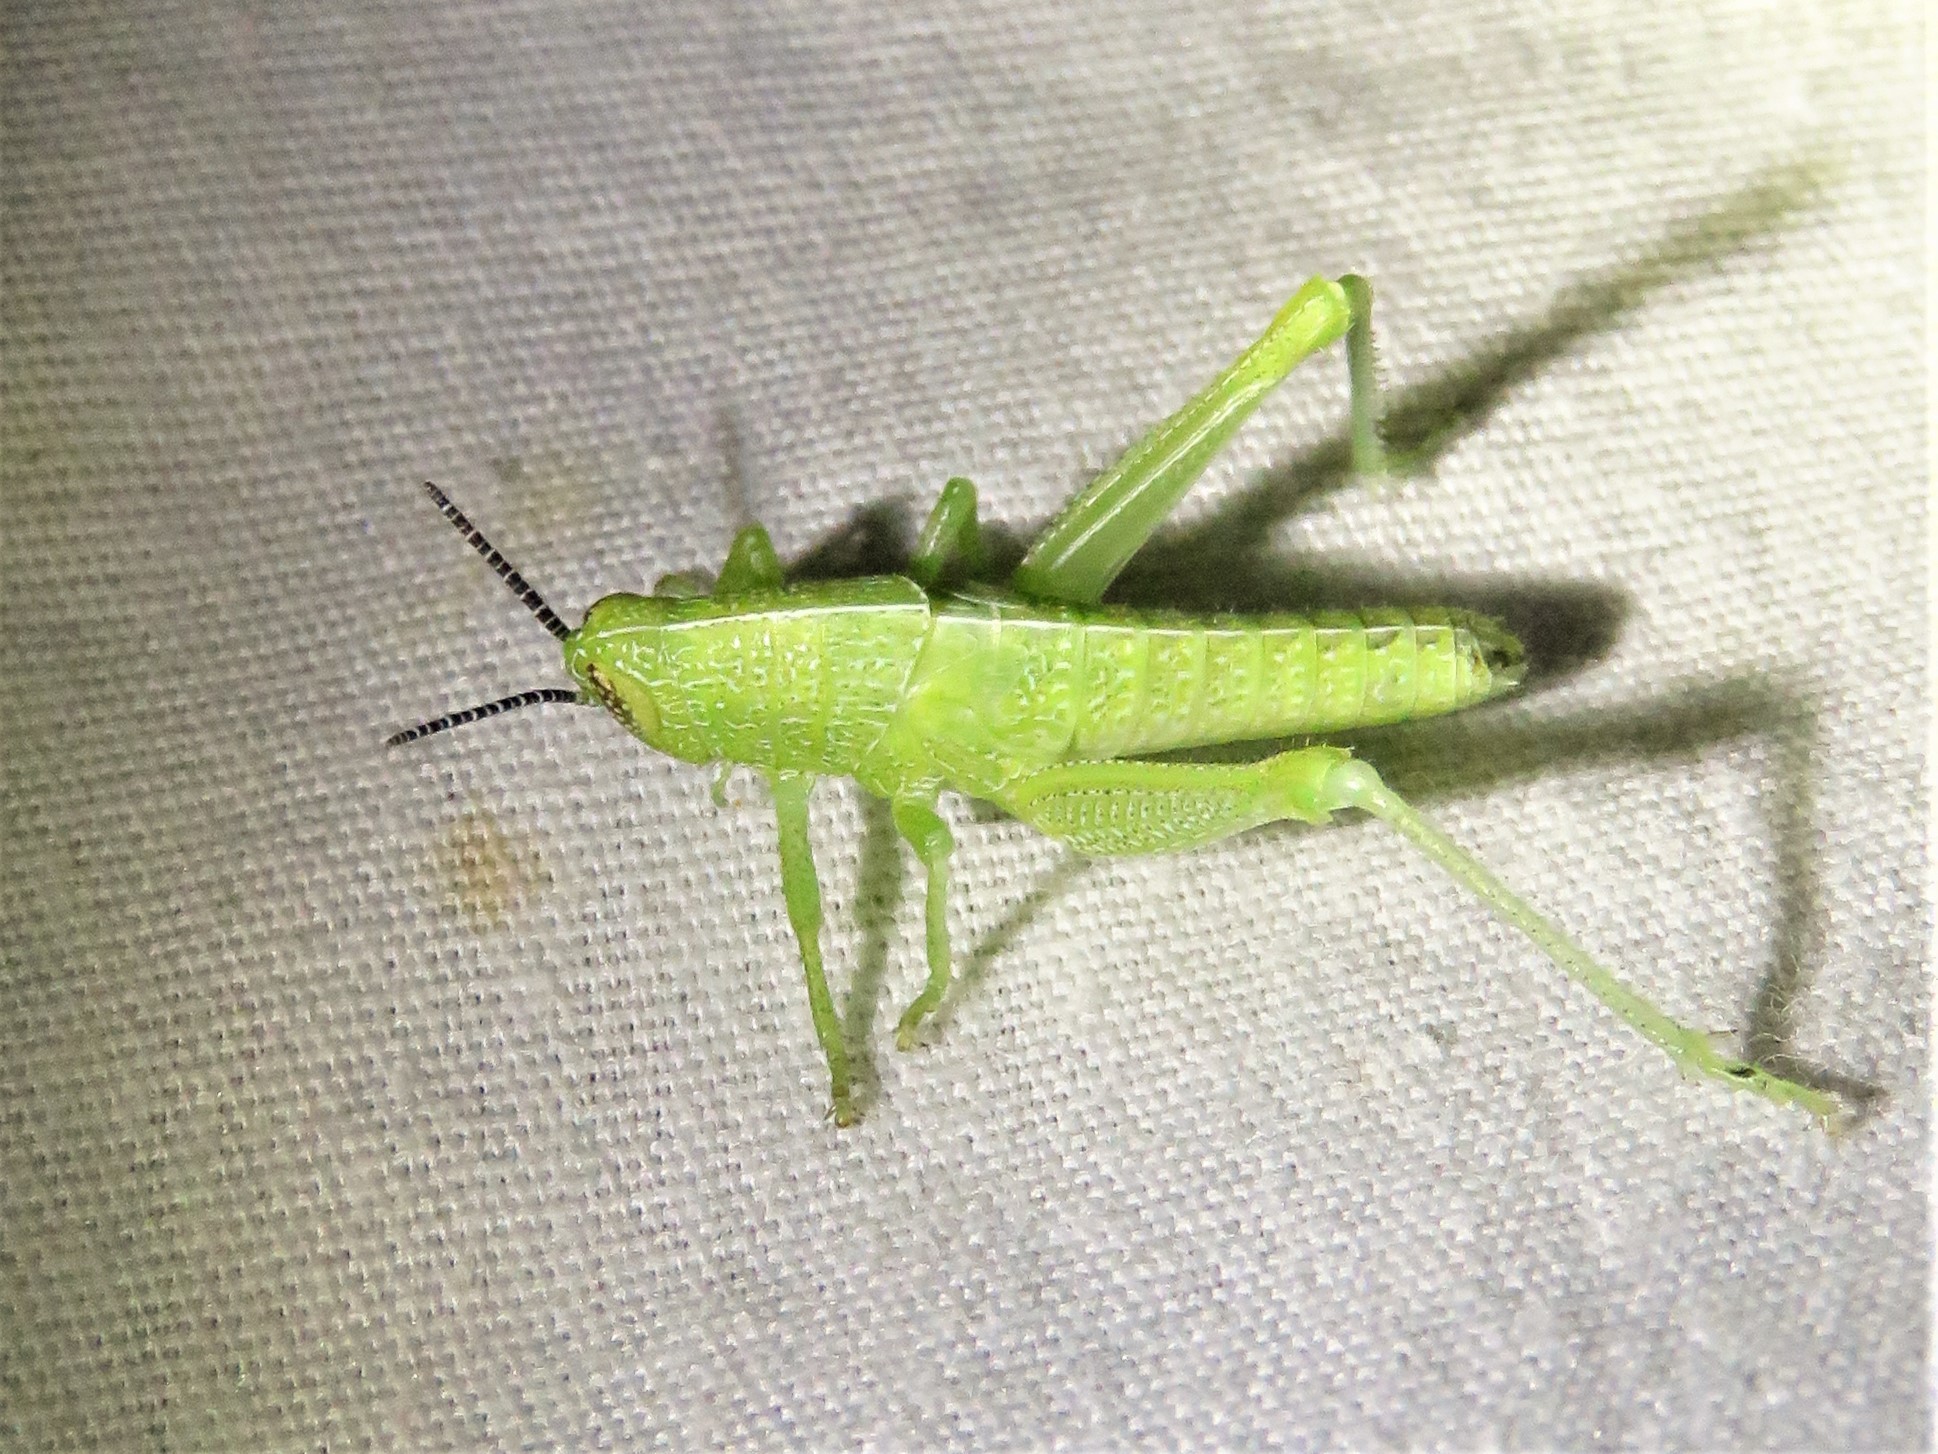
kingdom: Animalia
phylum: Arthropoda
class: Insecta
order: Orthoptera
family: Acrididae
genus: Hesperotettix
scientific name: Hesperotettix speciosus
